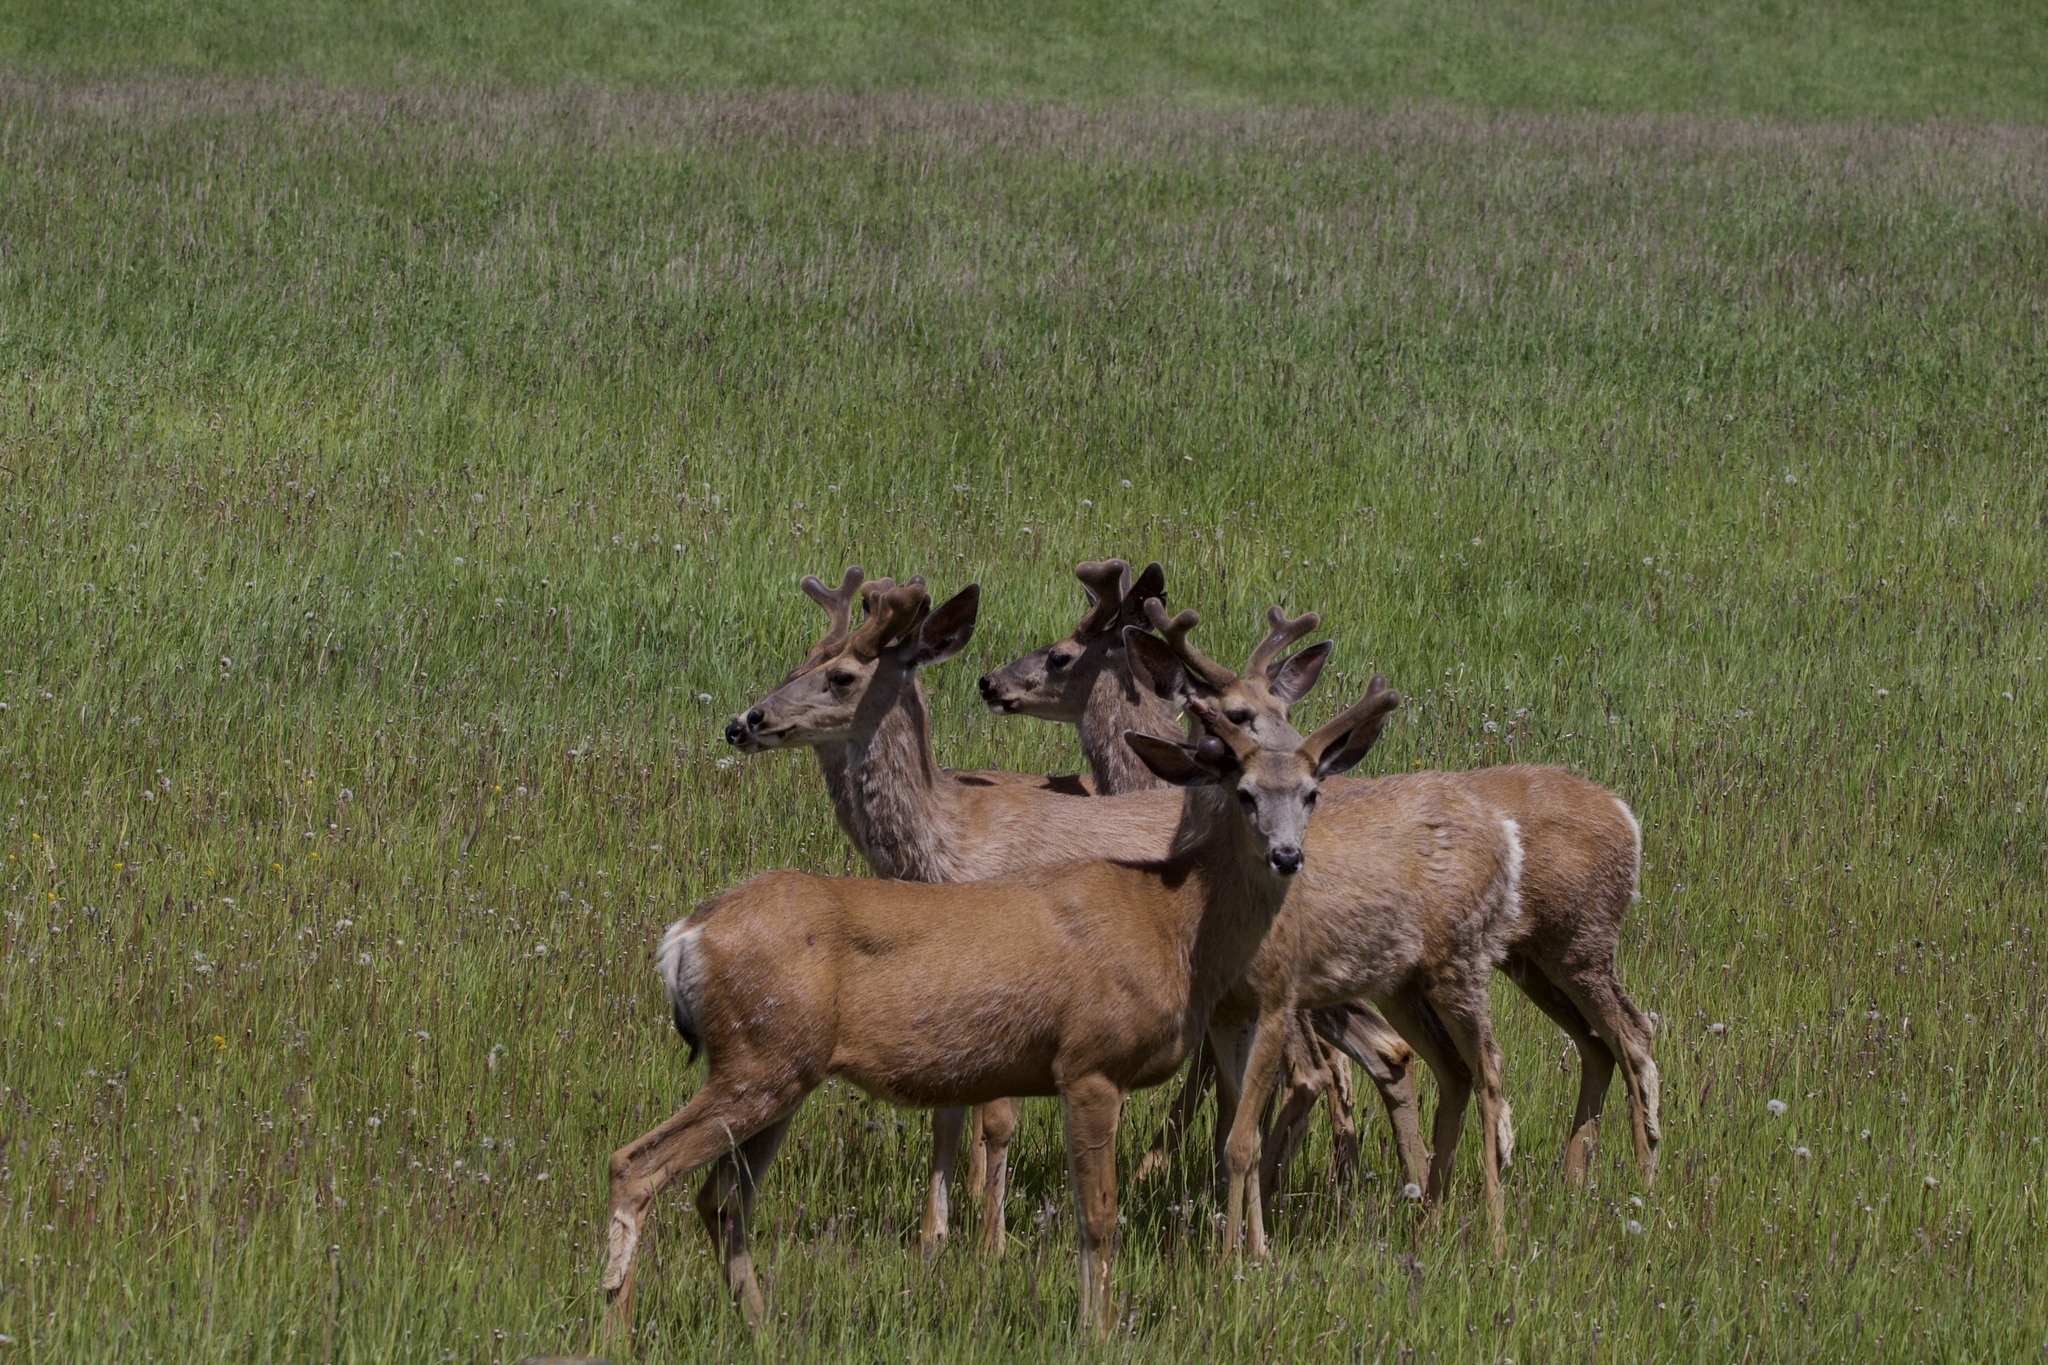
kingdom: Animalia
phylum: Chordata
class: Mammalia
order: Artiodactyla
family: Cervidae
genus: Odocoileus
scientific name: Odocoileus hemionus
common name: Mule deer
